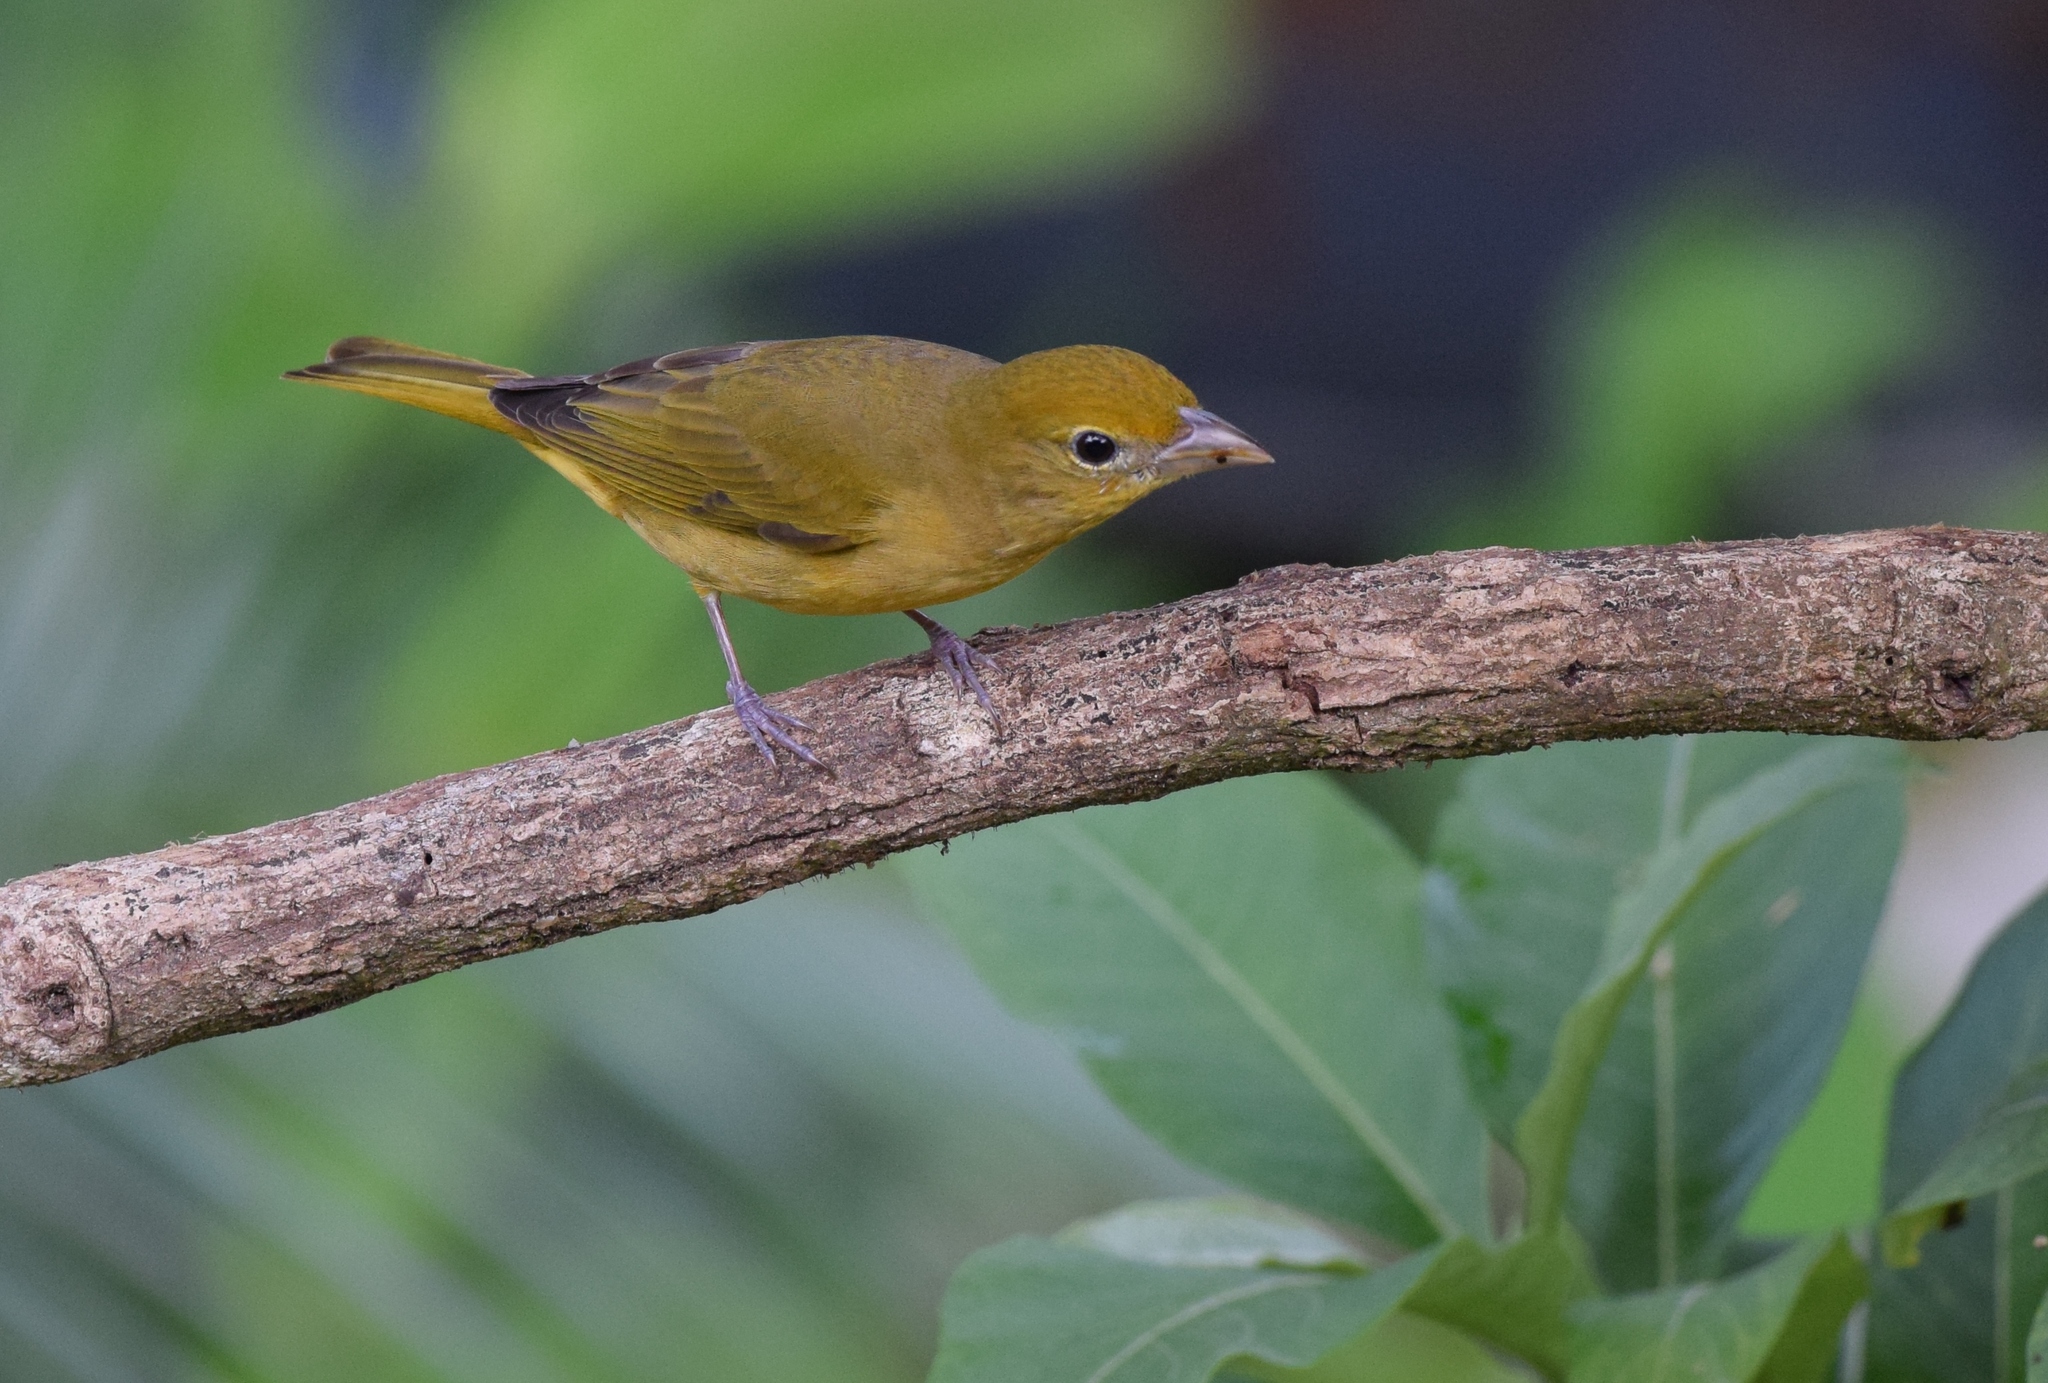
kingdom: Animalia
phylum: Chordata
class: Aves
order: Passeriformes
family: Cardinalidae
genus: Piranga
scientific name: Piranga rubra
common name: Summer tanager
